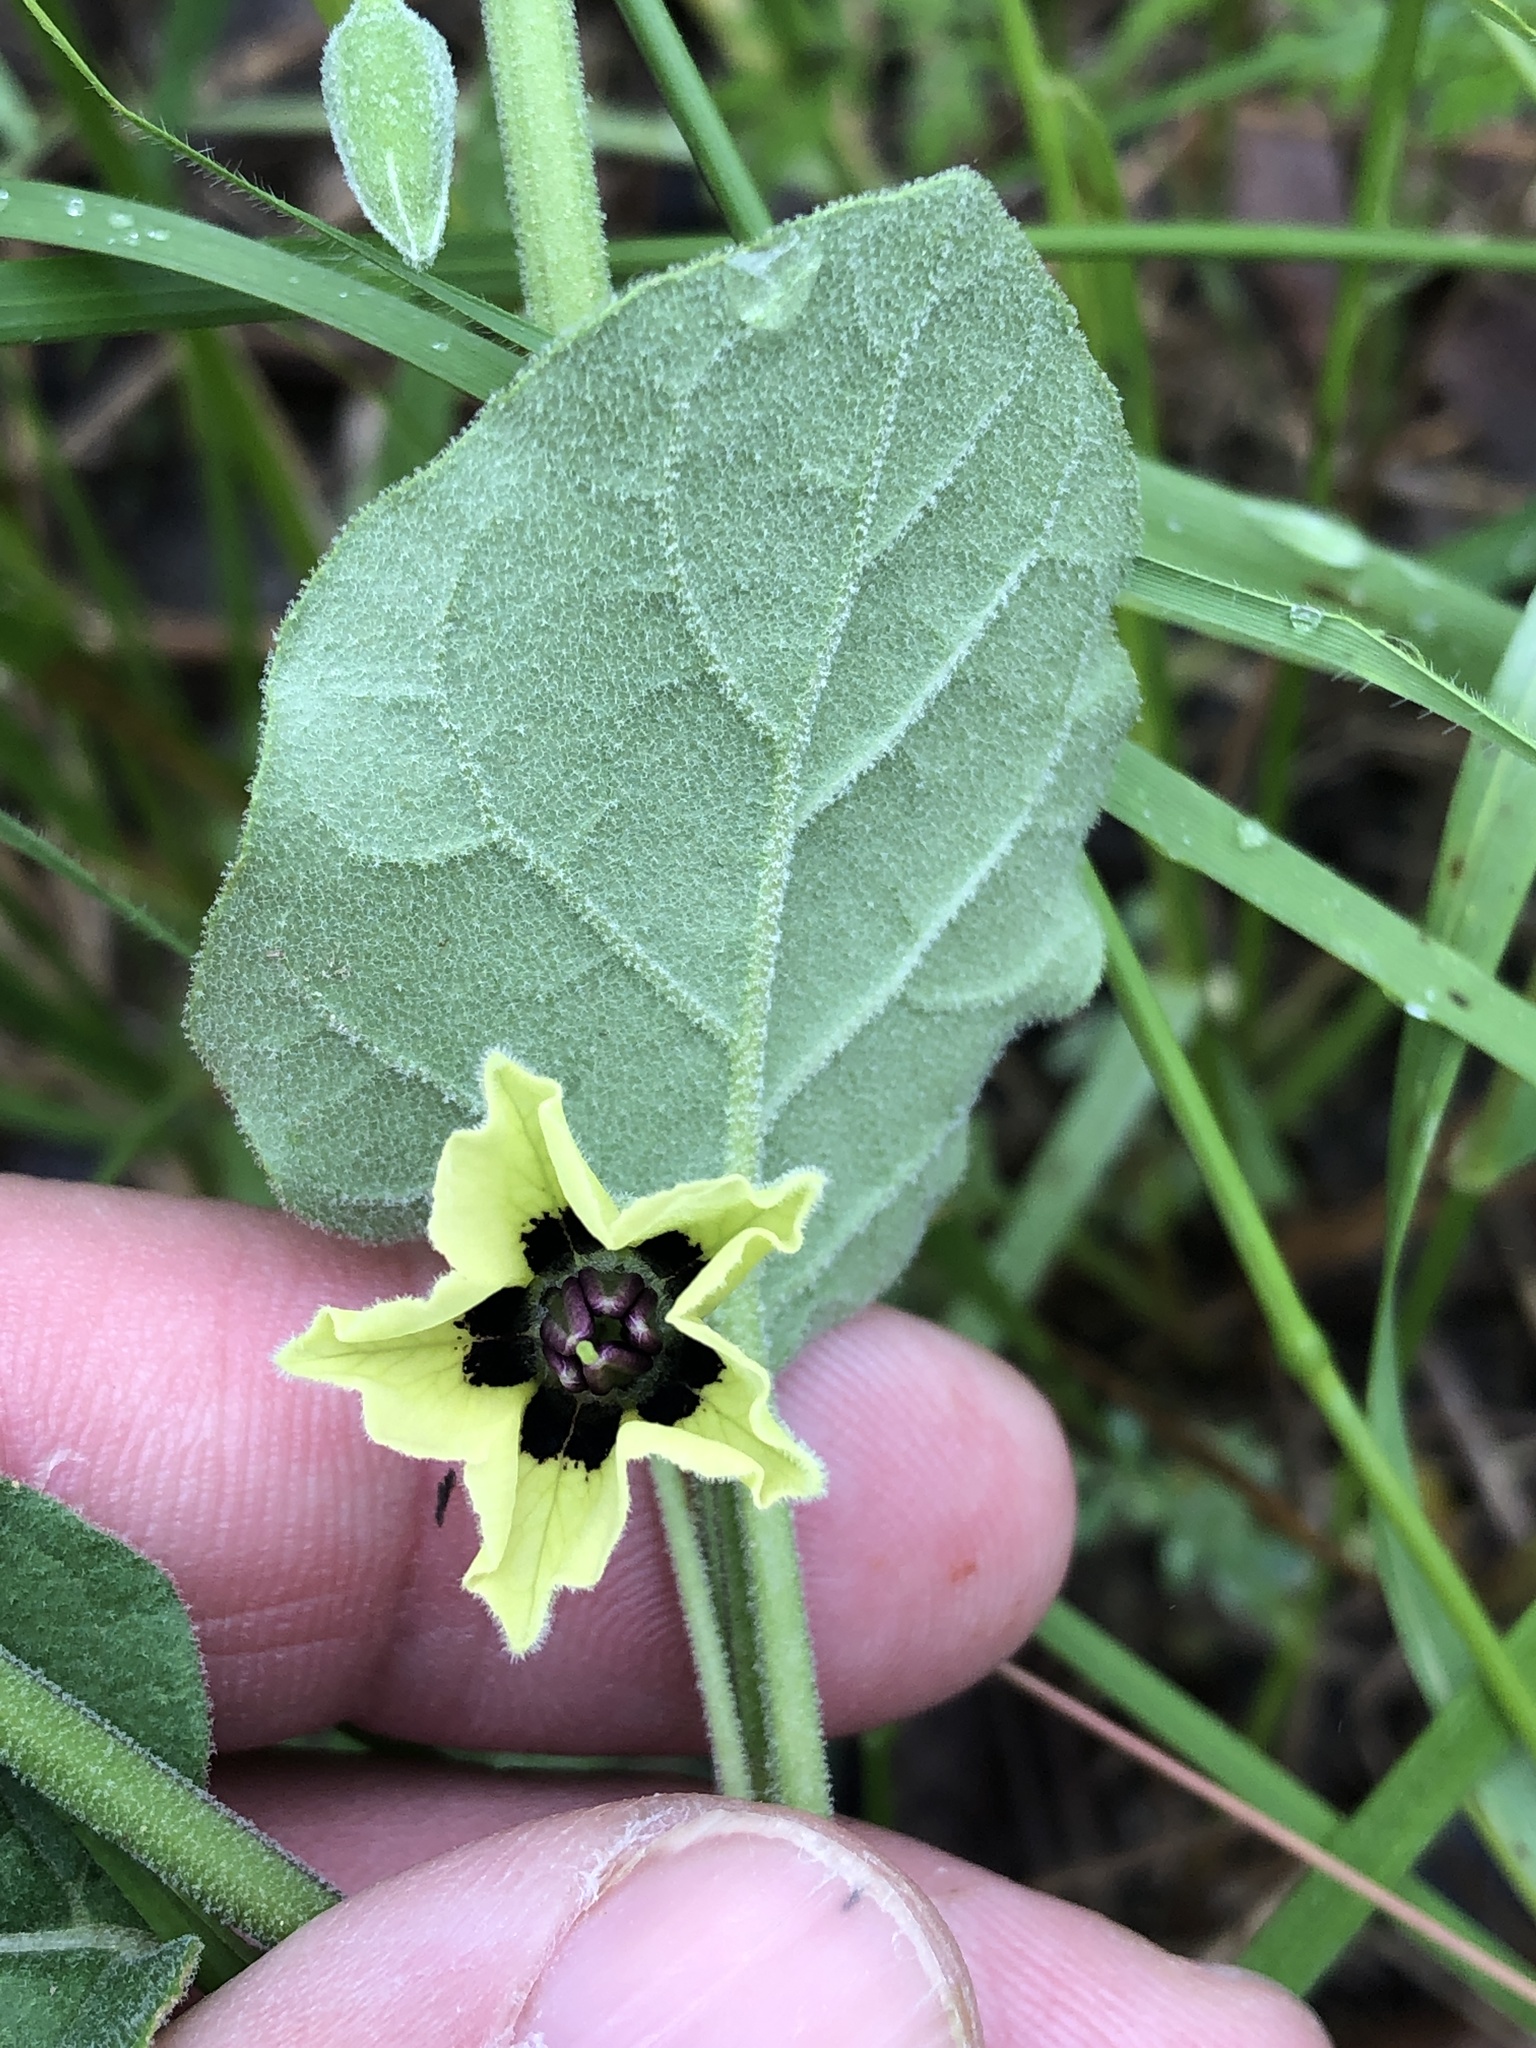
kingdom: Plantae
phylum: Tracheophyta
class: Magnoliopsida
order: Solanales
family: Solanaceae
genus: Physalis
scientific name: Physalis cinerascens
